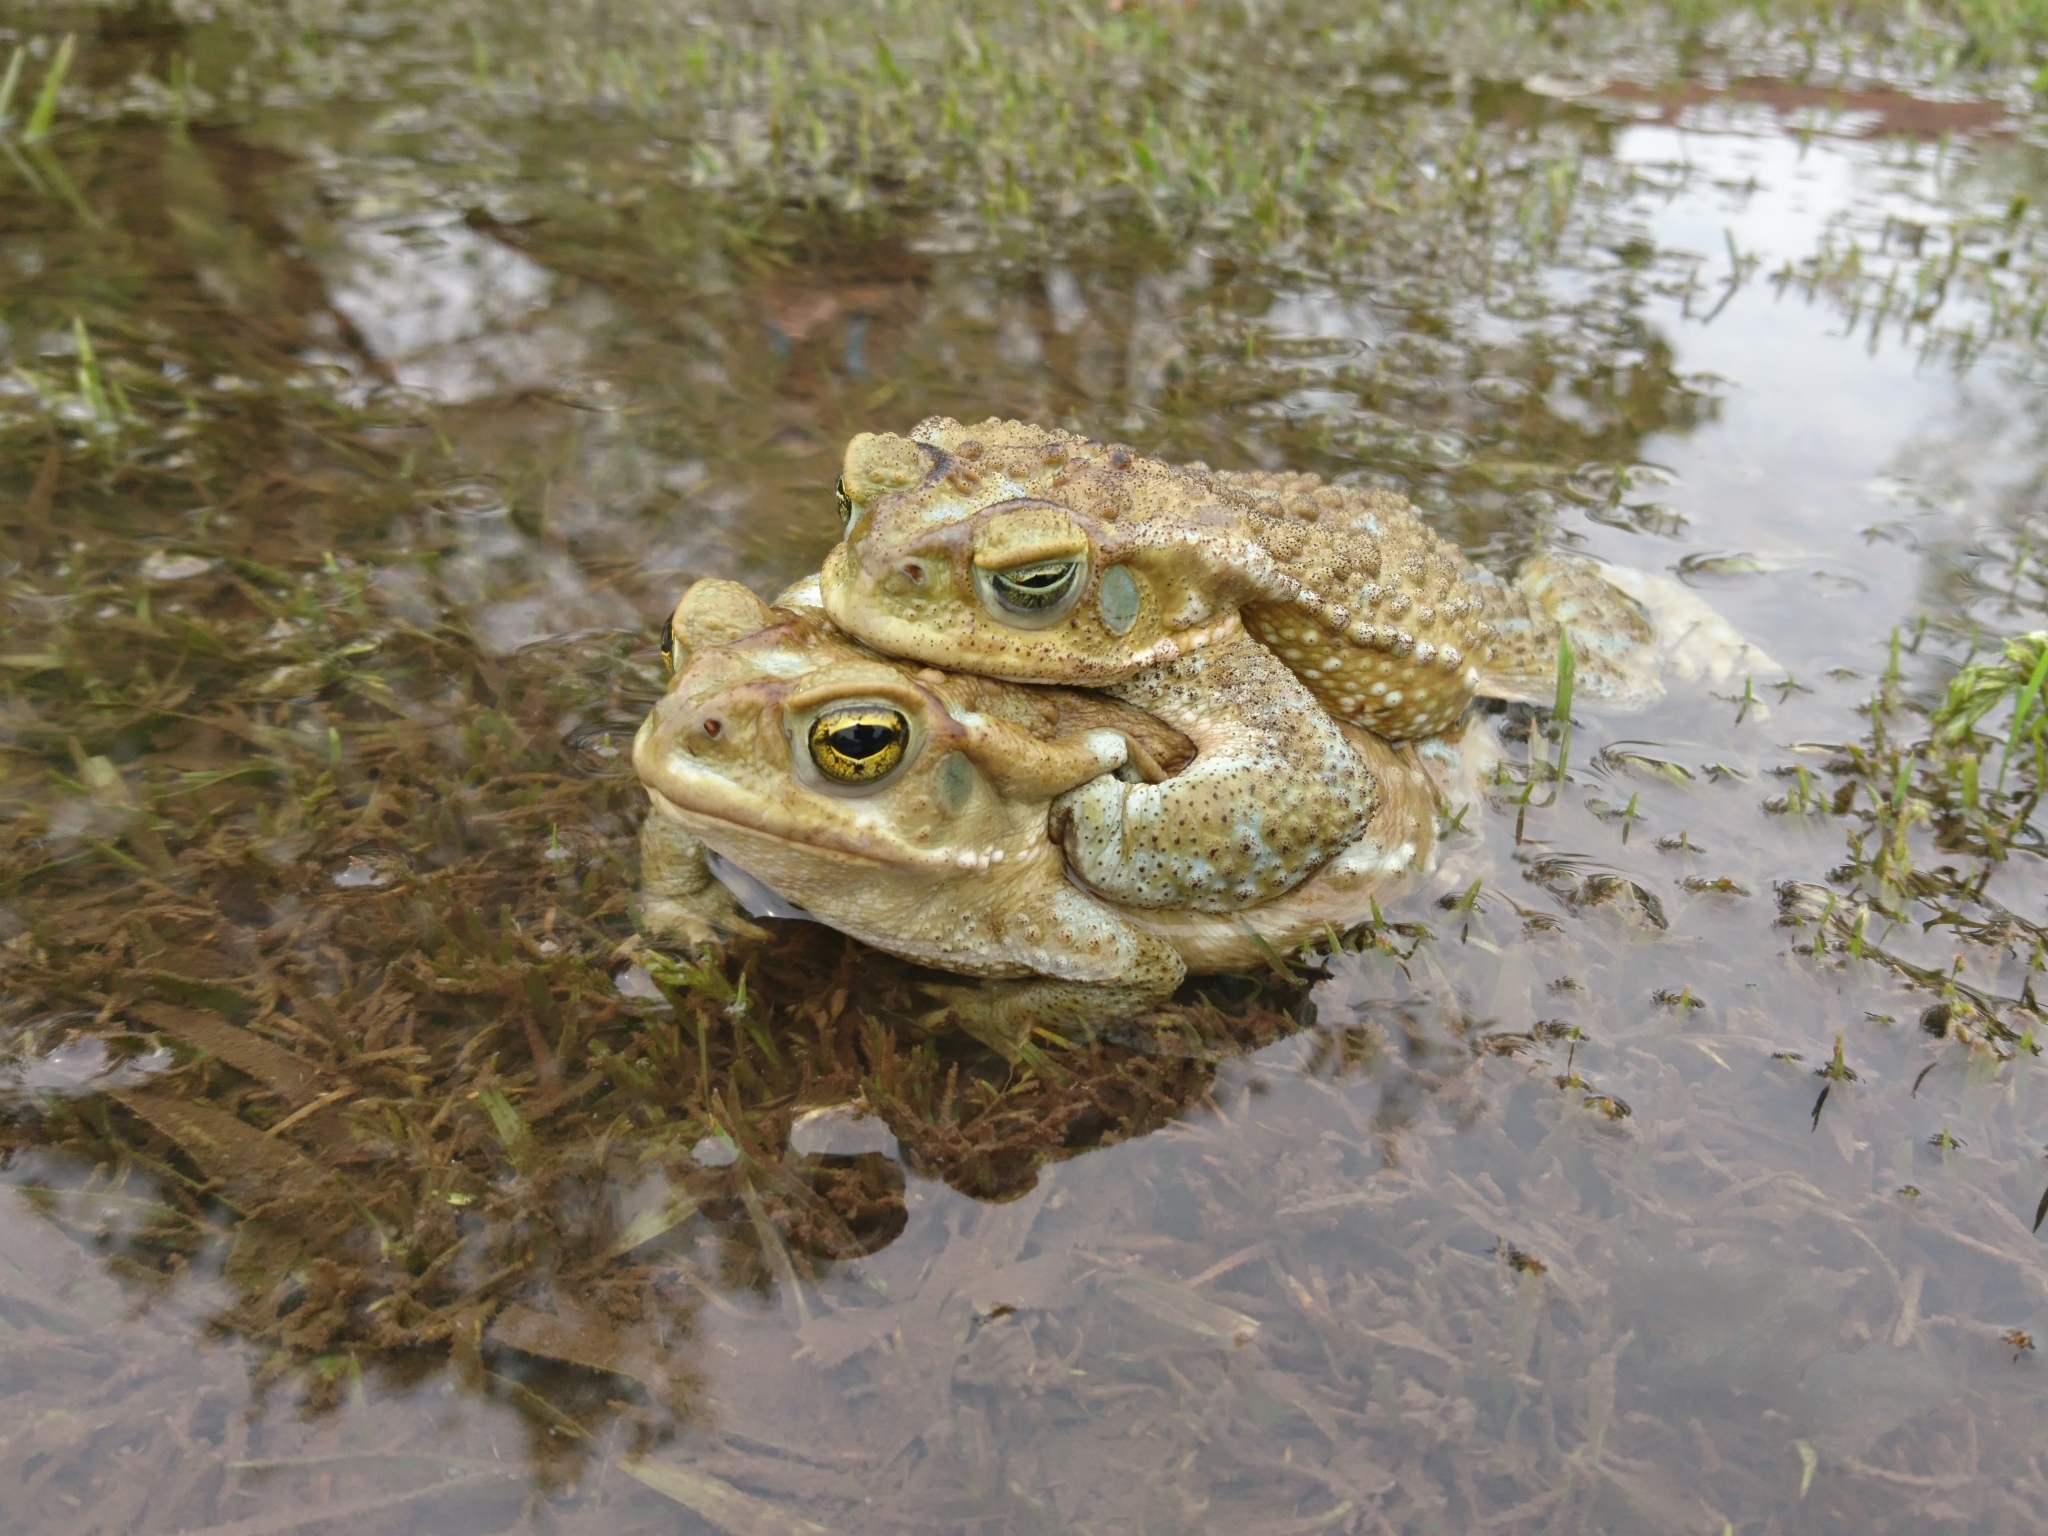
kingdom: Animalia
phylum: Chordata
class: Amphibia
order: Anura
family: Bufonidae
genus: Rhinella
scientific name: Rhinella arenarum
